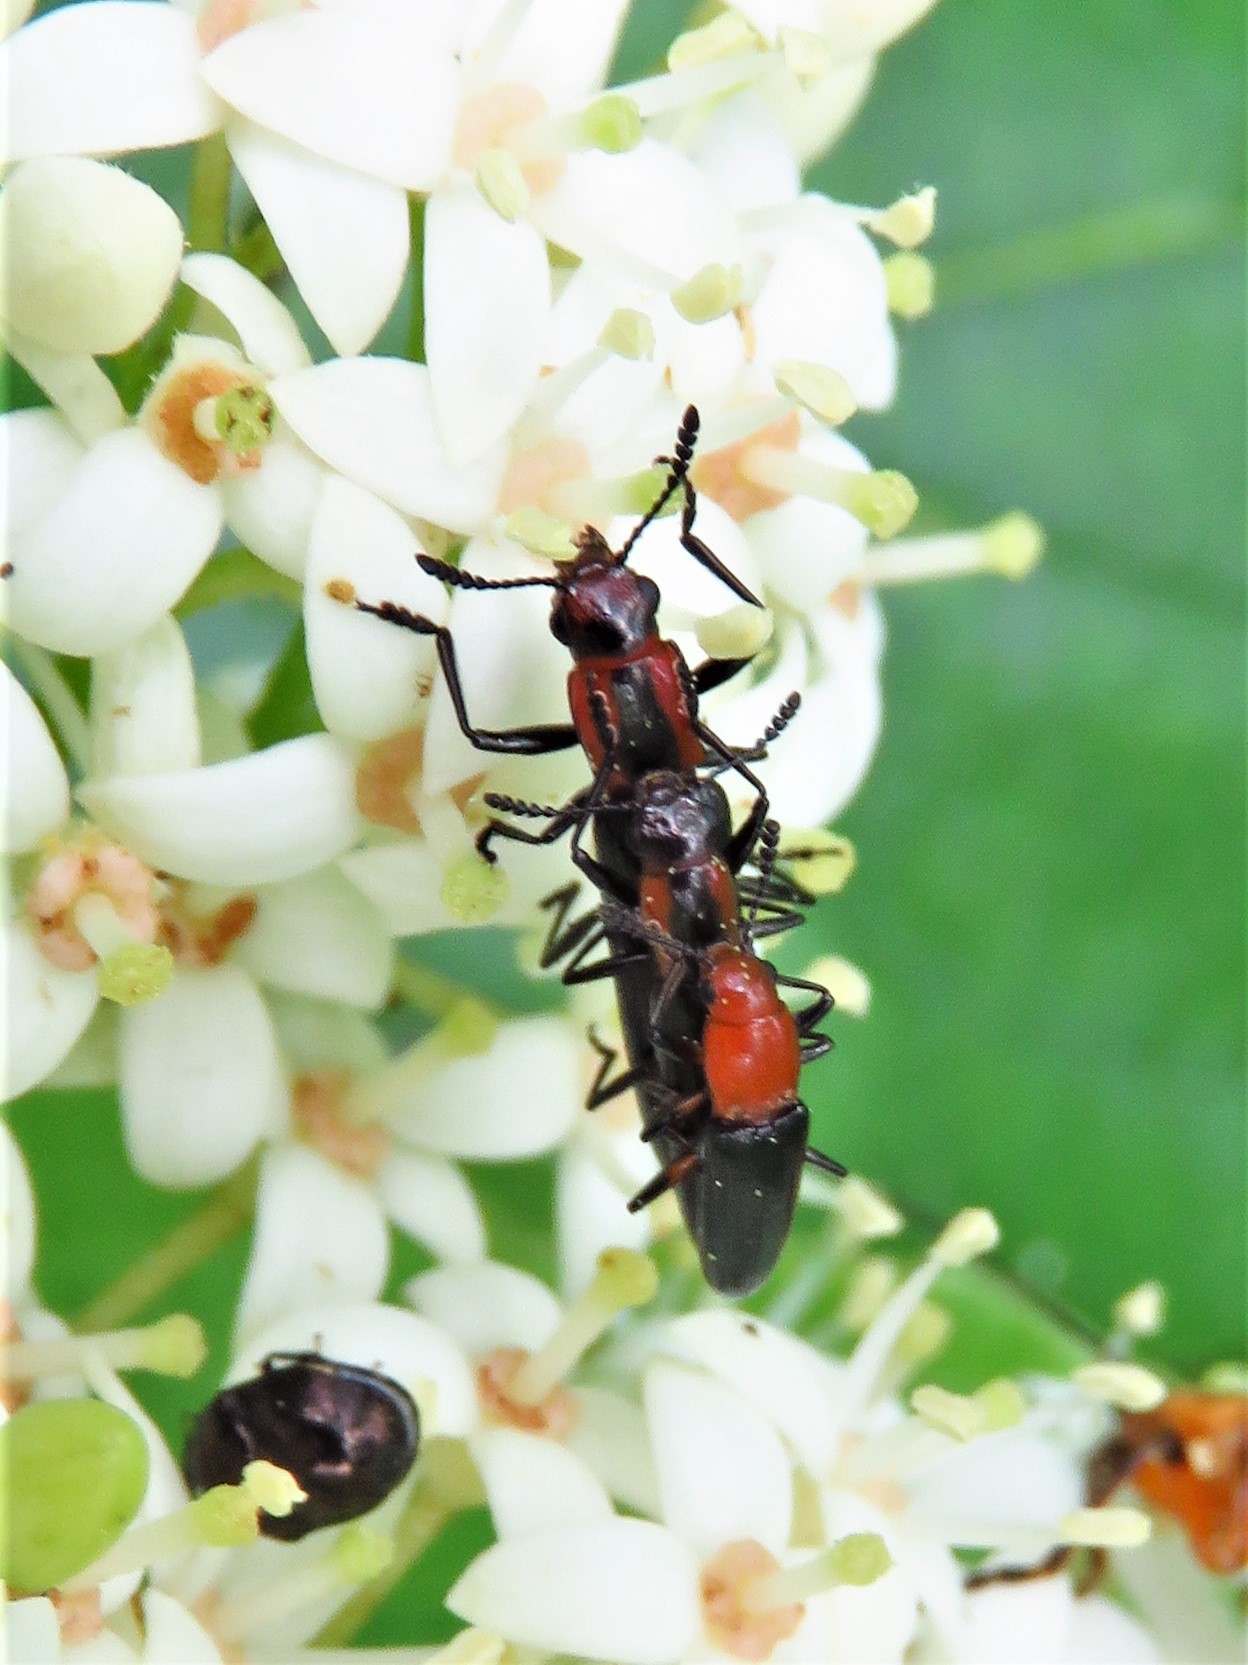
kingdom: Animalia
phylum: Arthropoda
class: Insecta
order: Coleoptera
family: Erotylidae
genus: Acropteroxys
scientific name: Acropteroxys gracilis
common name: Slender lizard beetle
